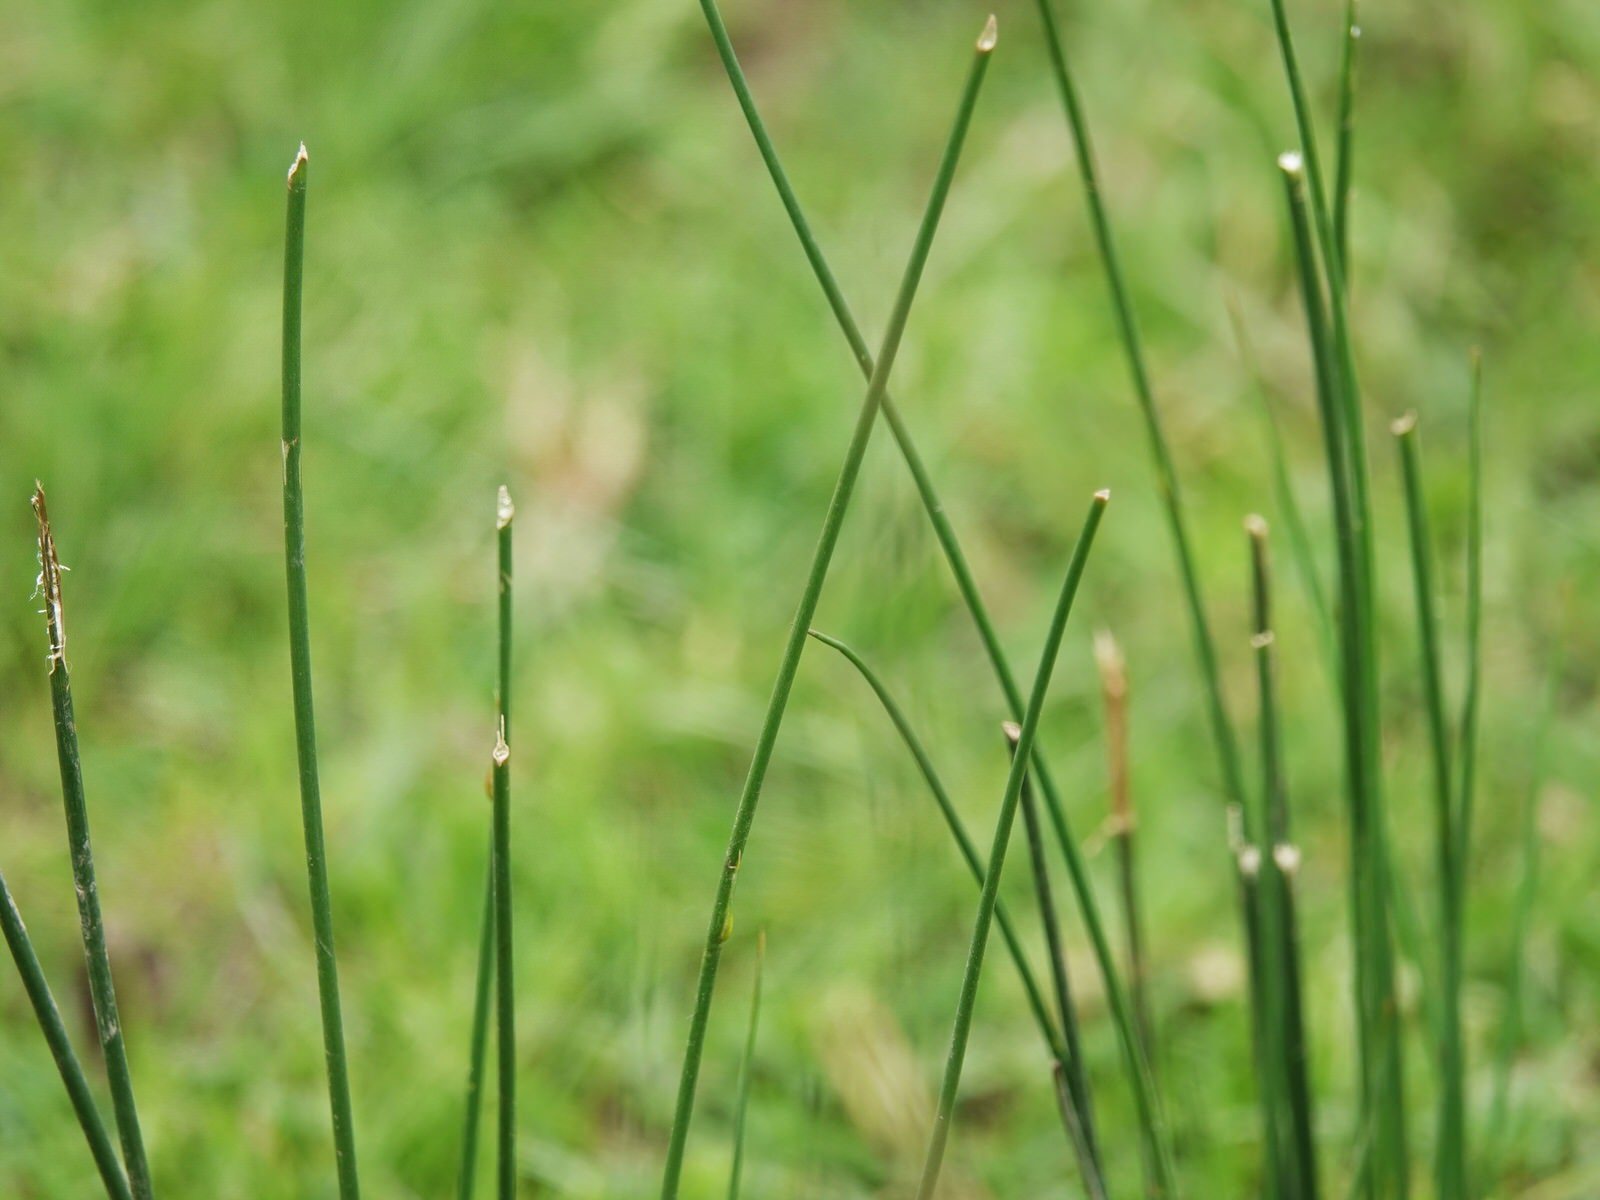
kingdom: Plantae
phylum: Tracheophyta
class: Liliopsida
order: Poales
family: Juncaceae
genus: Juncus
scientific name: Juncus edgariae
